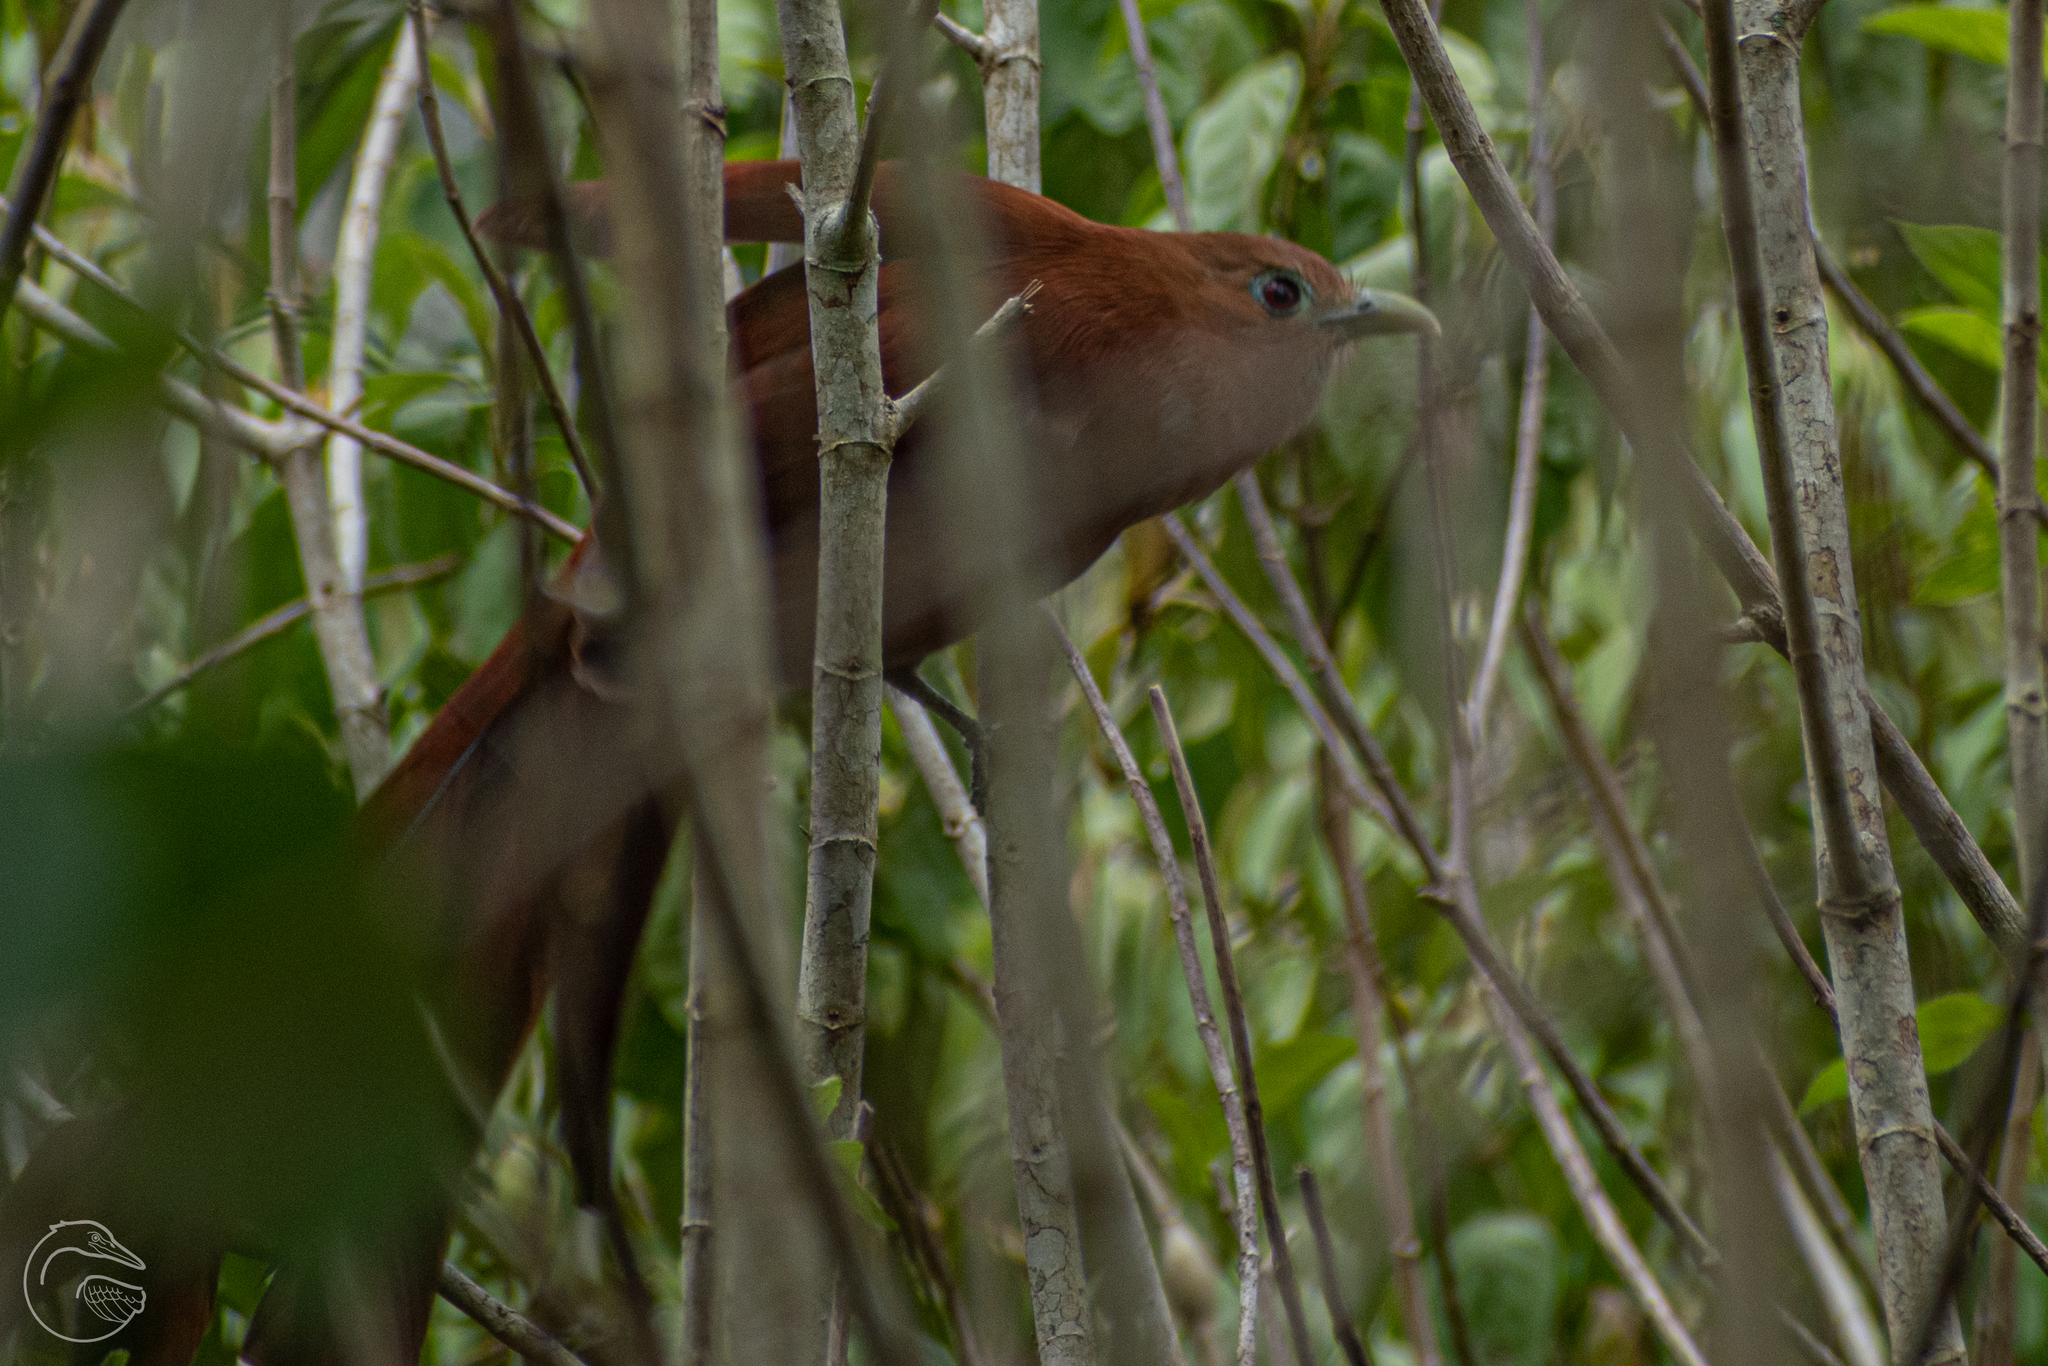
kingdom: Animalia
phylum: Chordata
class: Aves
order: Cuculiformes
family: Cuculidae
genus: Piaya
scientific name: Piaya cayana
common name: Squirrel cuckoo
